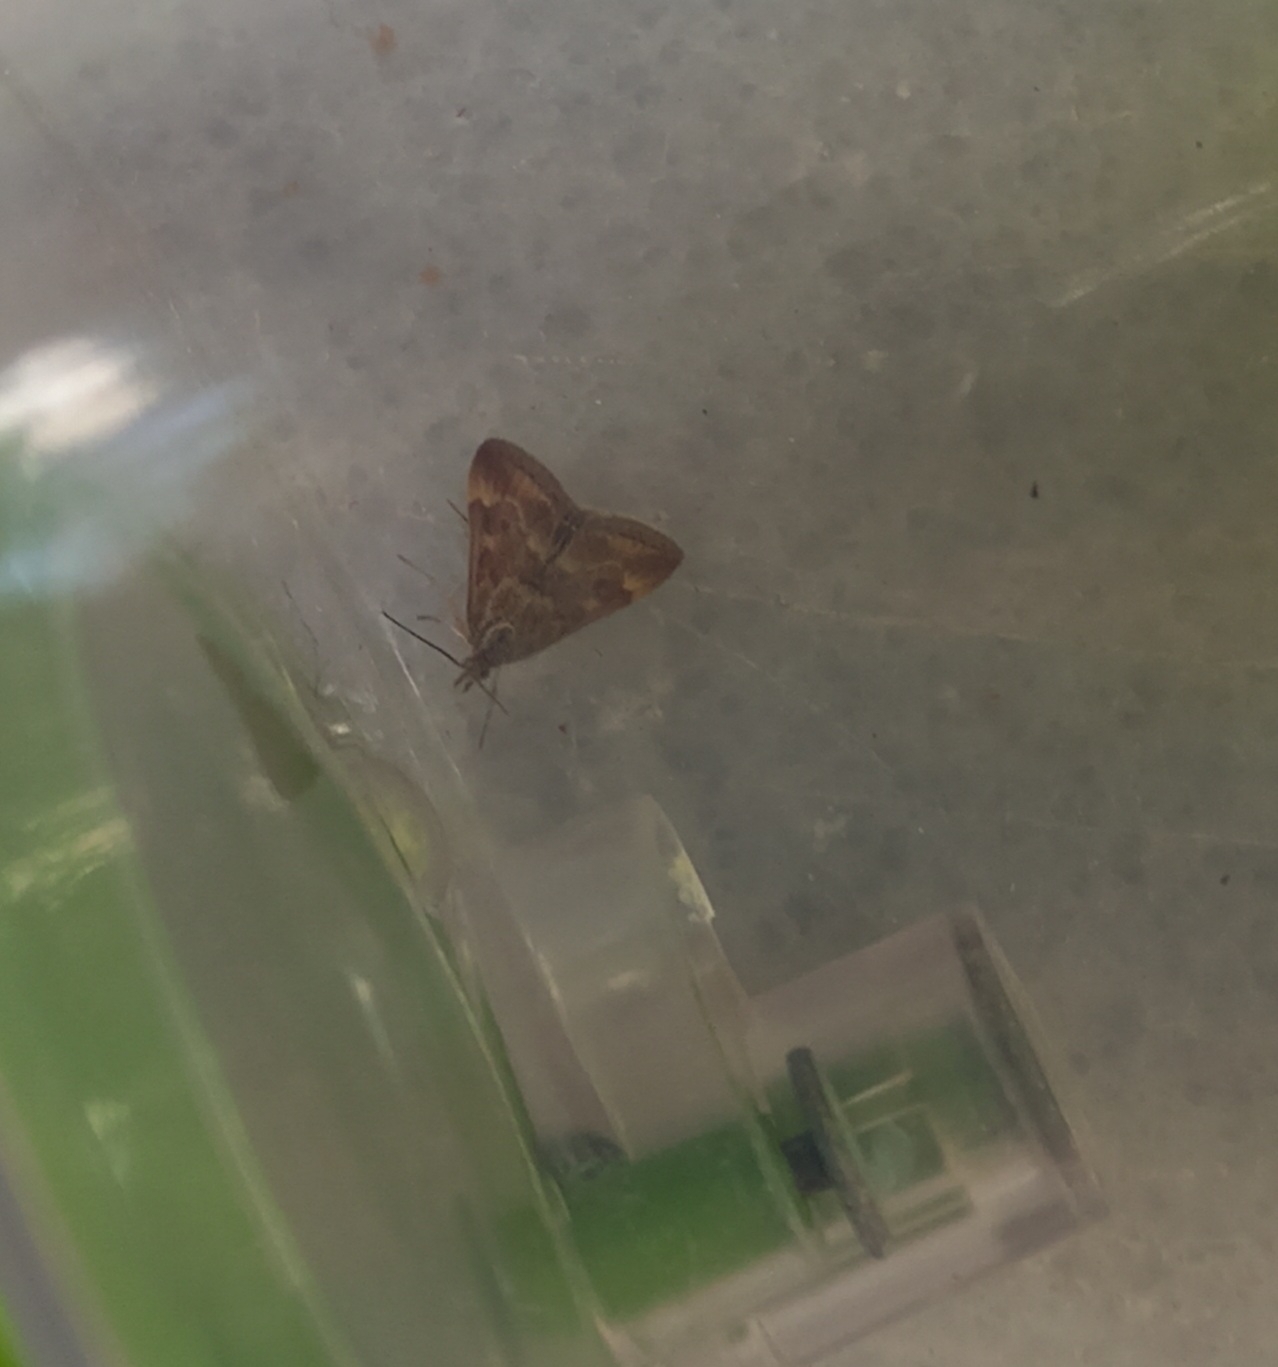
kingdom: Animalia
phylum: Arthropoda
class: Insecta
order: Lepidoptera
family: Crambidae
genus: Loxostege
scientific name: Loxostege sticticalis
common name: Crambid moth
